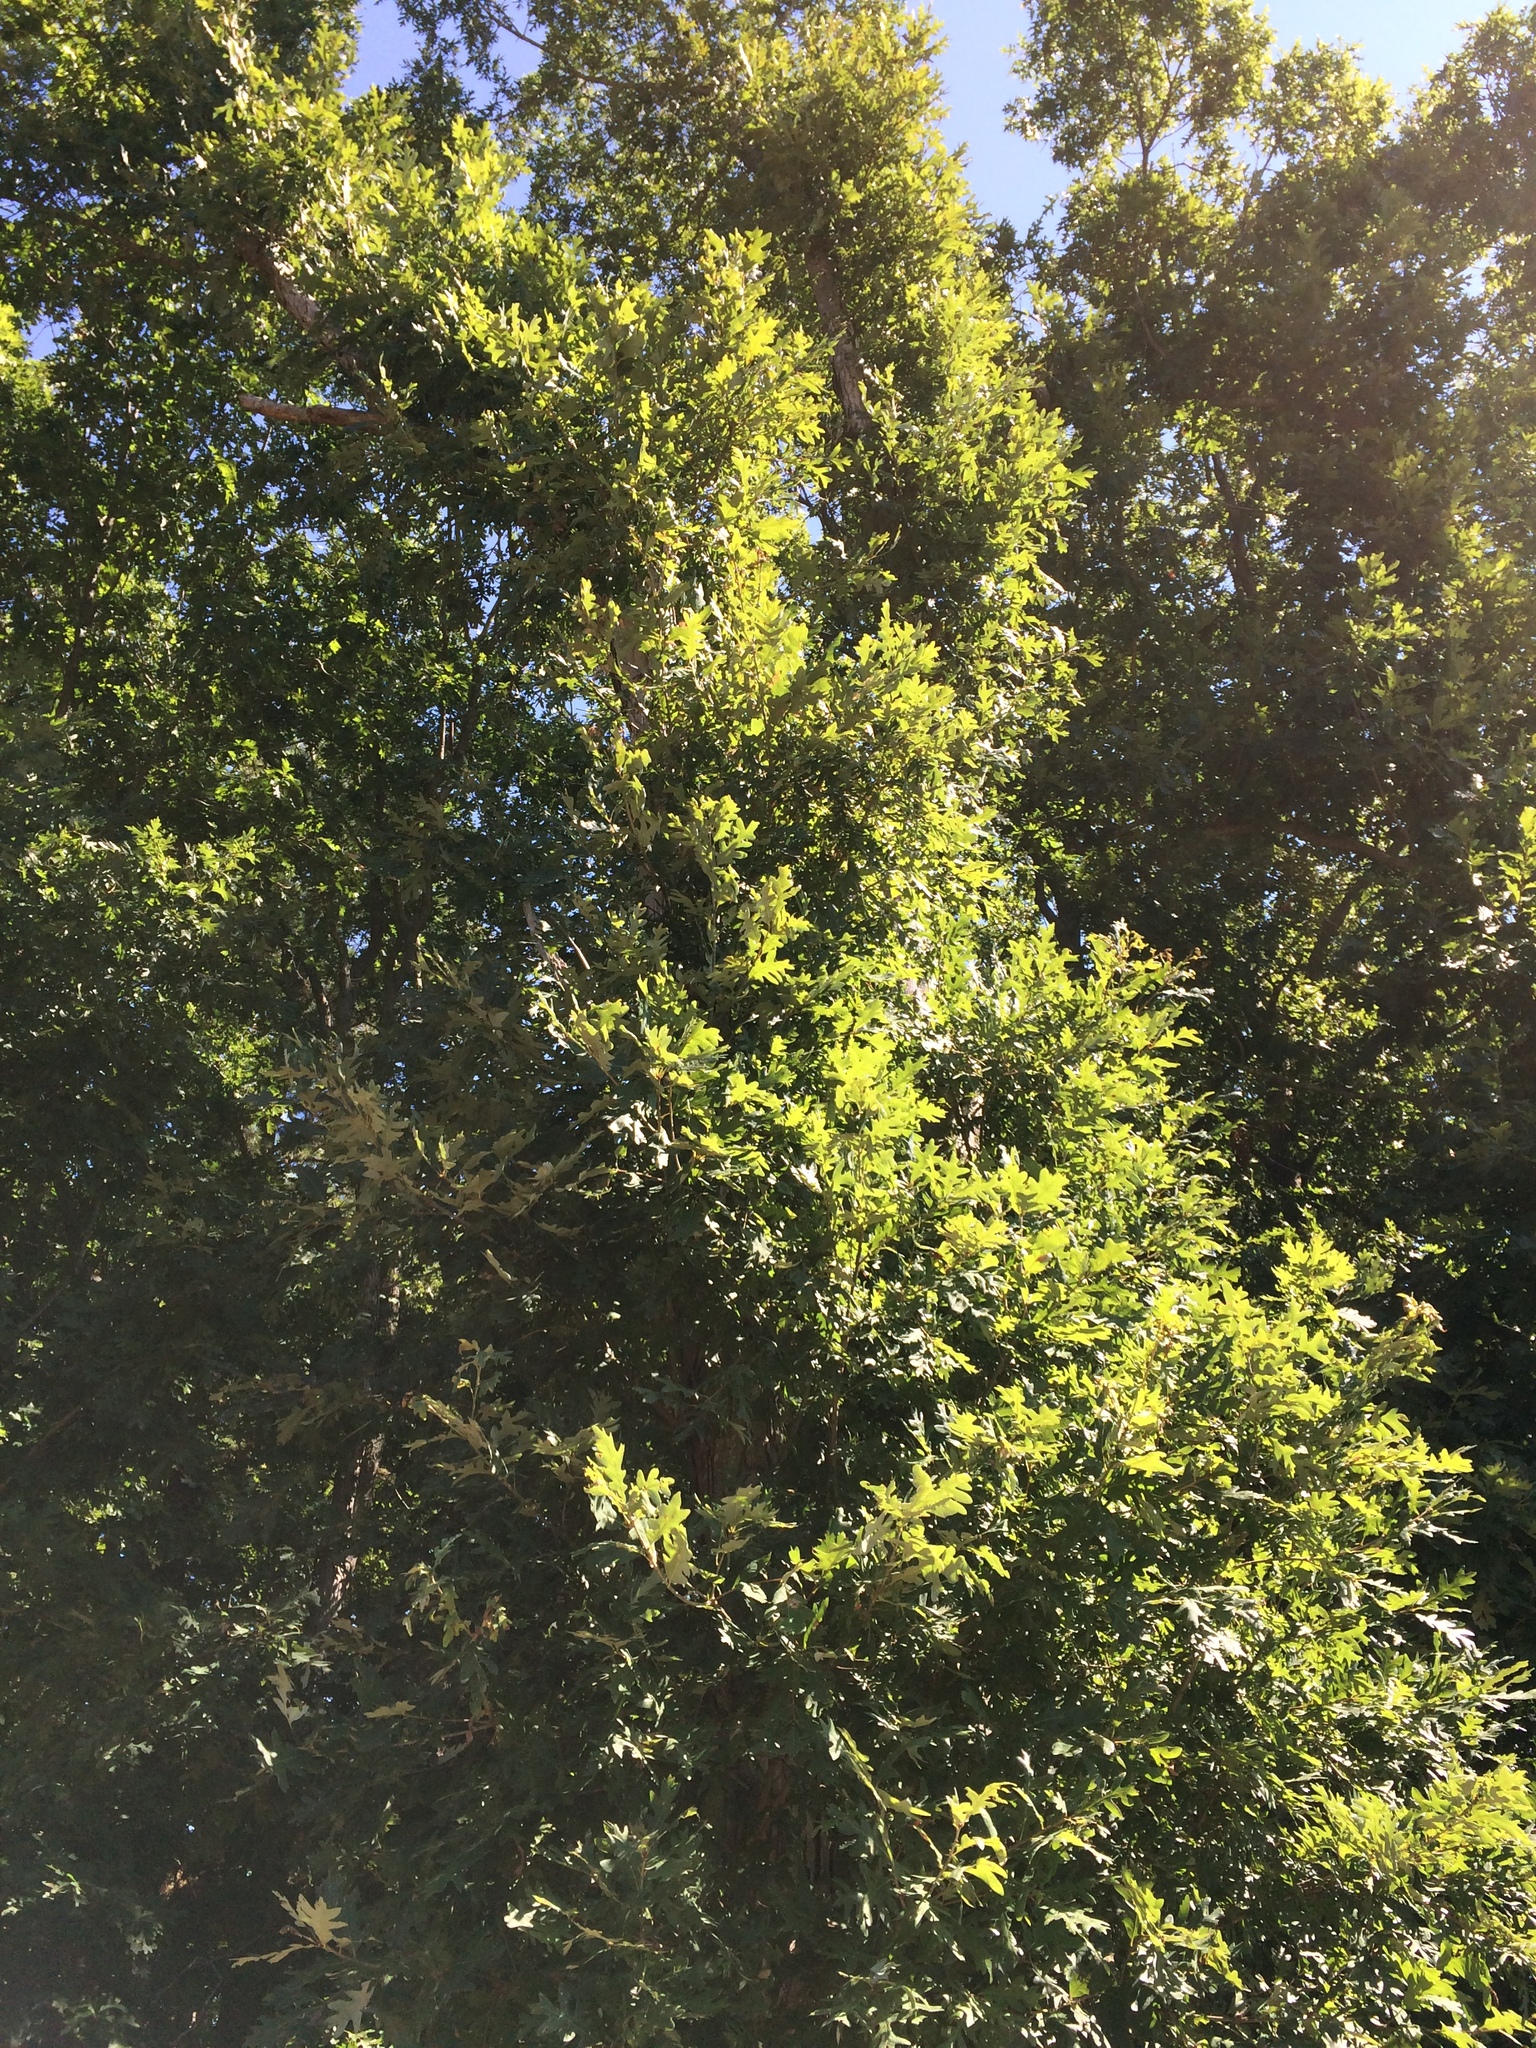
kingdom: Plantae
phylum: Tracheophyta
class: Magnoliopsida
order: Fagales
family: Fagaceae
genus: Quercus
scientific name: Quercus alba
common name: White oak
